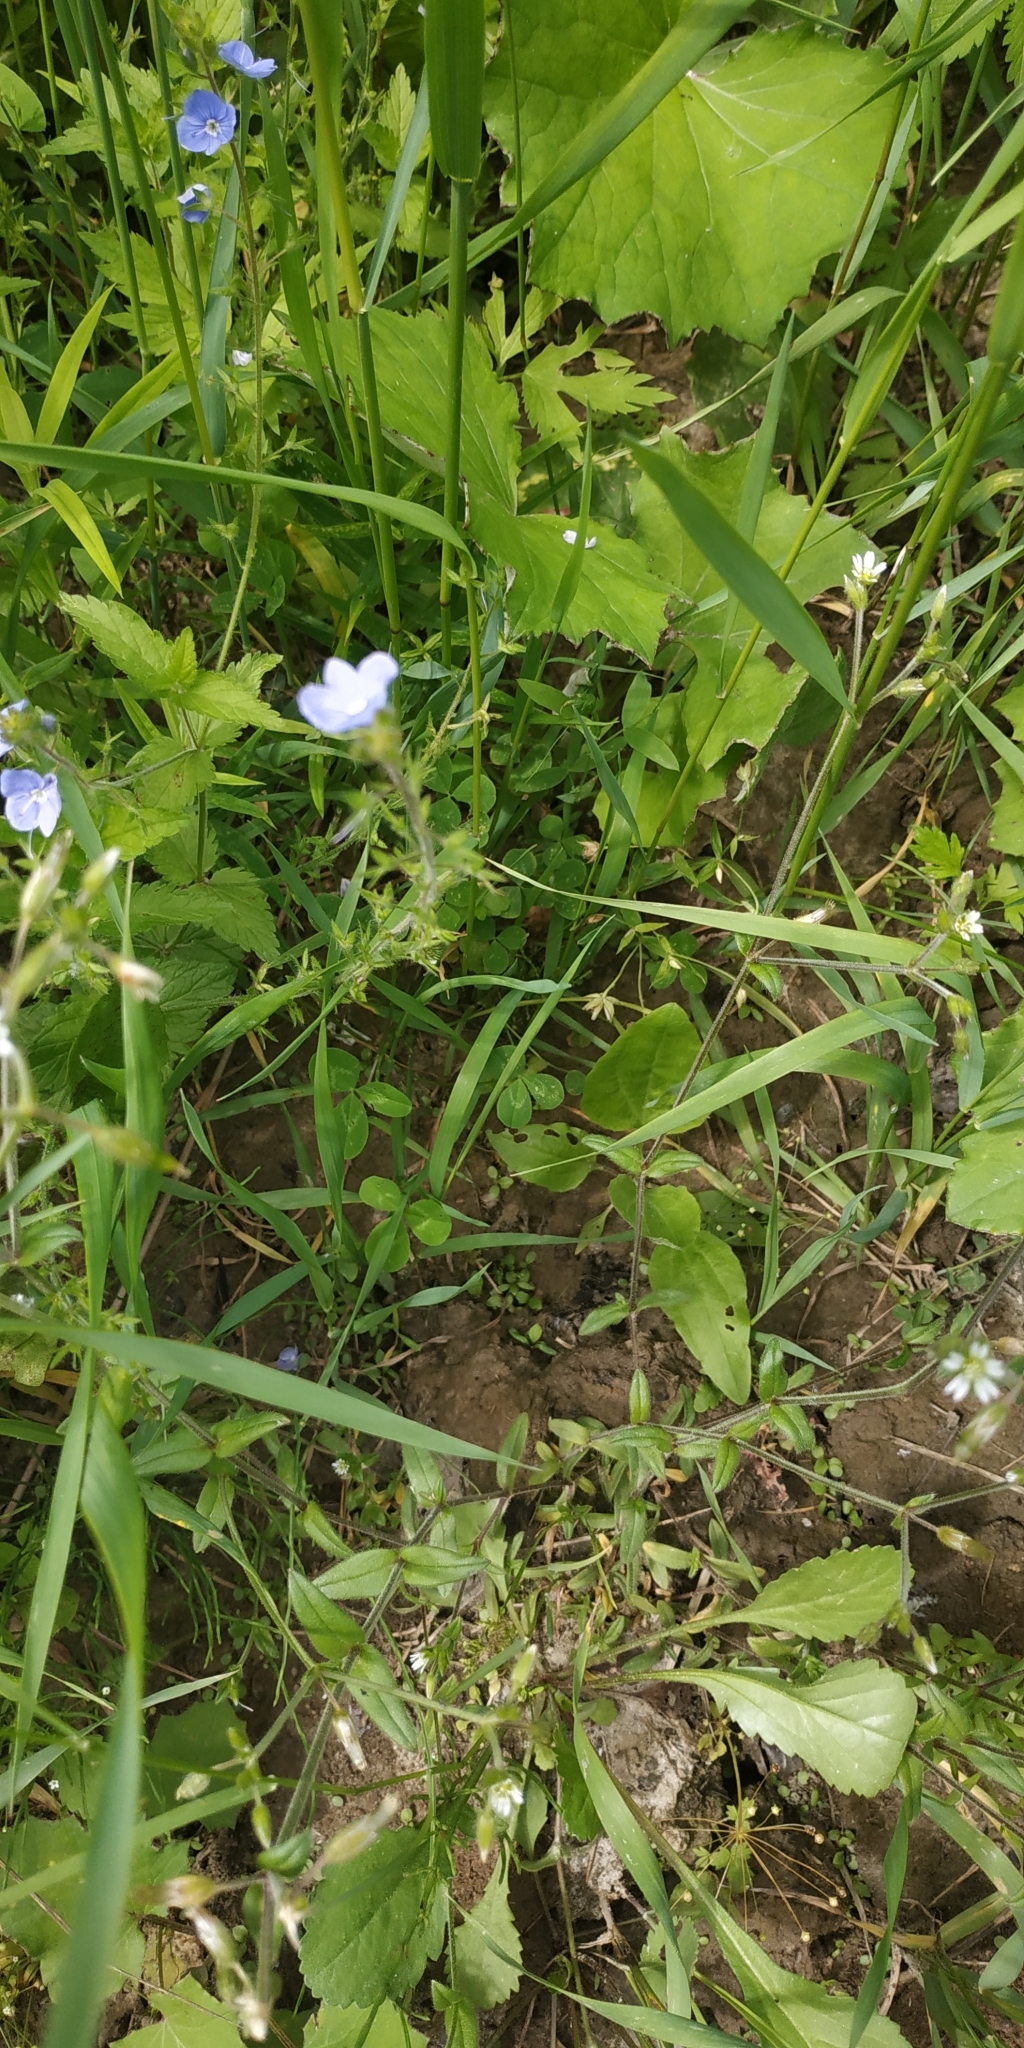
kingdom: Plantae
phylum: Tracheophyta
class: Magnoliopsida
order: Lamiales
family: Plantaginaceae
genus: Veronica
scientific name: Veronica chamaedrys
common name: Germander speedwell
